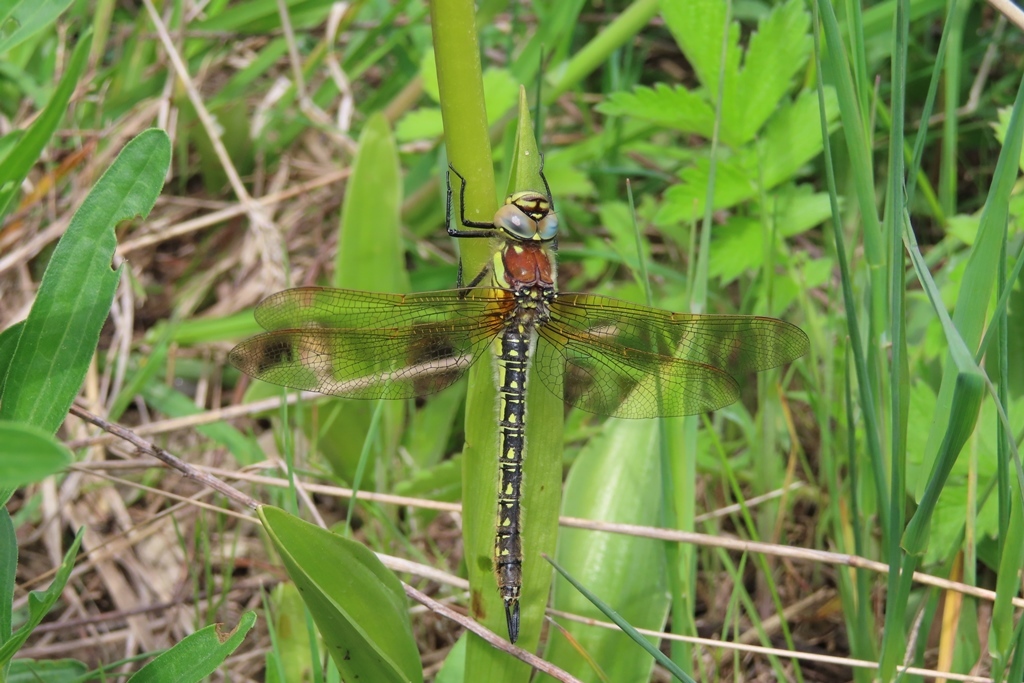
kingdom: Animalia
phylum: Arthropoda
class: Insecta
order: Odonata
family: Aeshnidae
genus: Brachytron
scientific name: Brachytron pratense
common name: Hairy hawker
